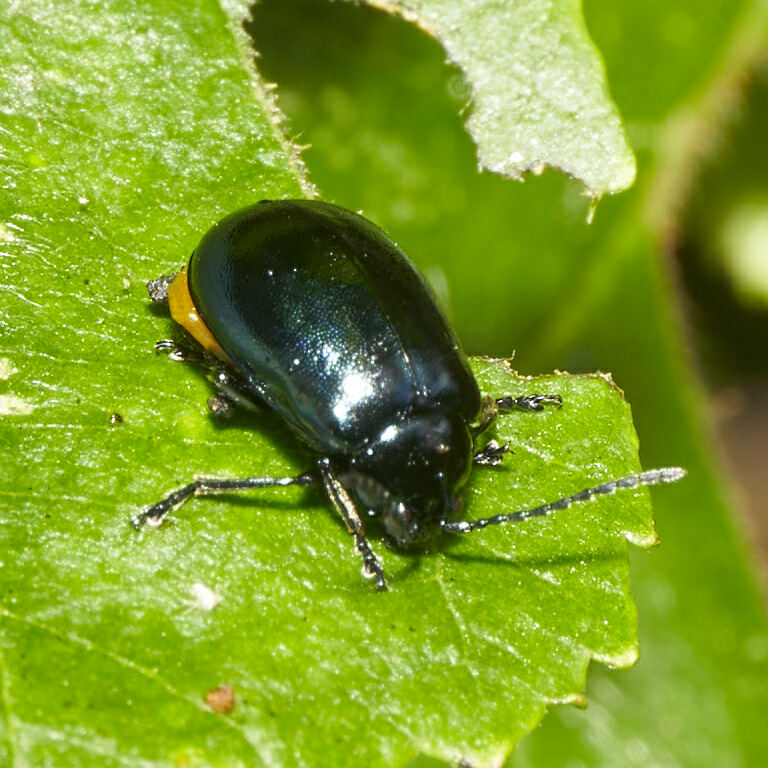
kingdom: Animalia
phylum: Arthropoda
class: Insecta
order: Coleoptera
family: Chrysomelidae
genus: Agelastica
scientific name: Agelastica alni
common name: Alder leaf beetle
